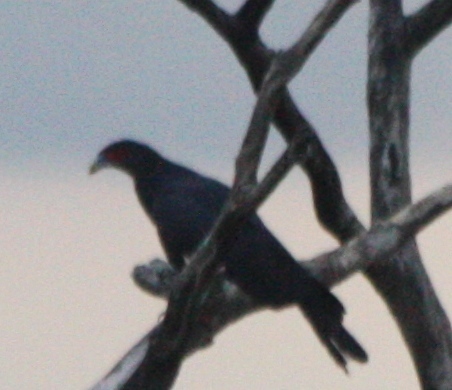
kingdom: Animalia
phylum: Chordata
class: Aves
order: Falconiformes
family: Falconidae
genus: Ibycter
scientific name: Ibycter americanus
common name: Red-throated caracara
